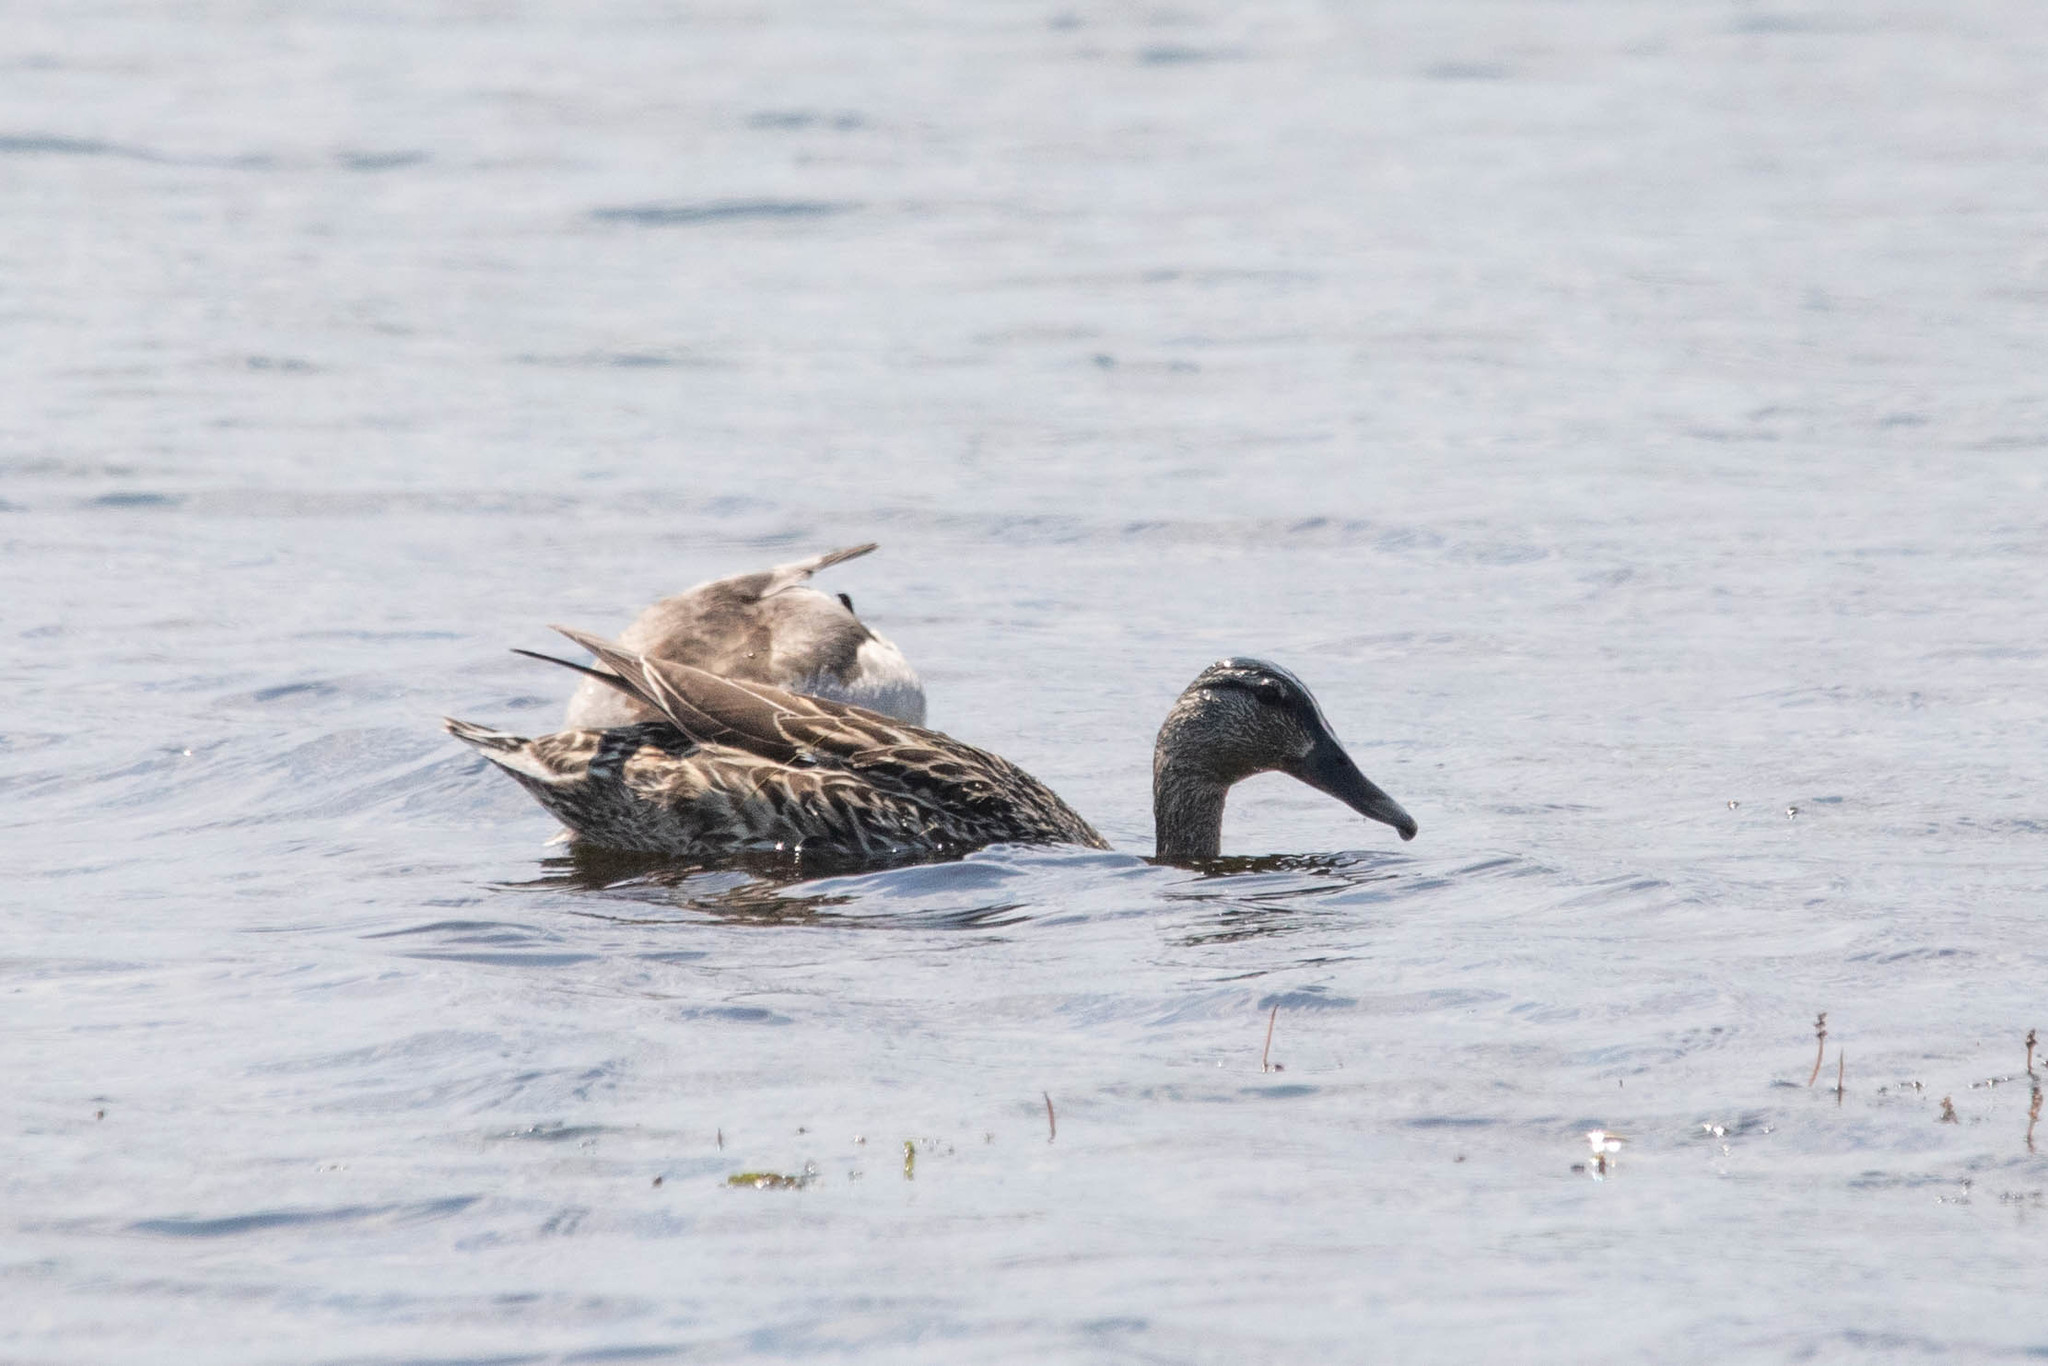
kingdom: Animalia
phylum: Chordata
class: Aves
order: Anseriformes
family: Anatidae
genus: Anas
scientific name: Anas platyrhynchos
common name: Mallard
